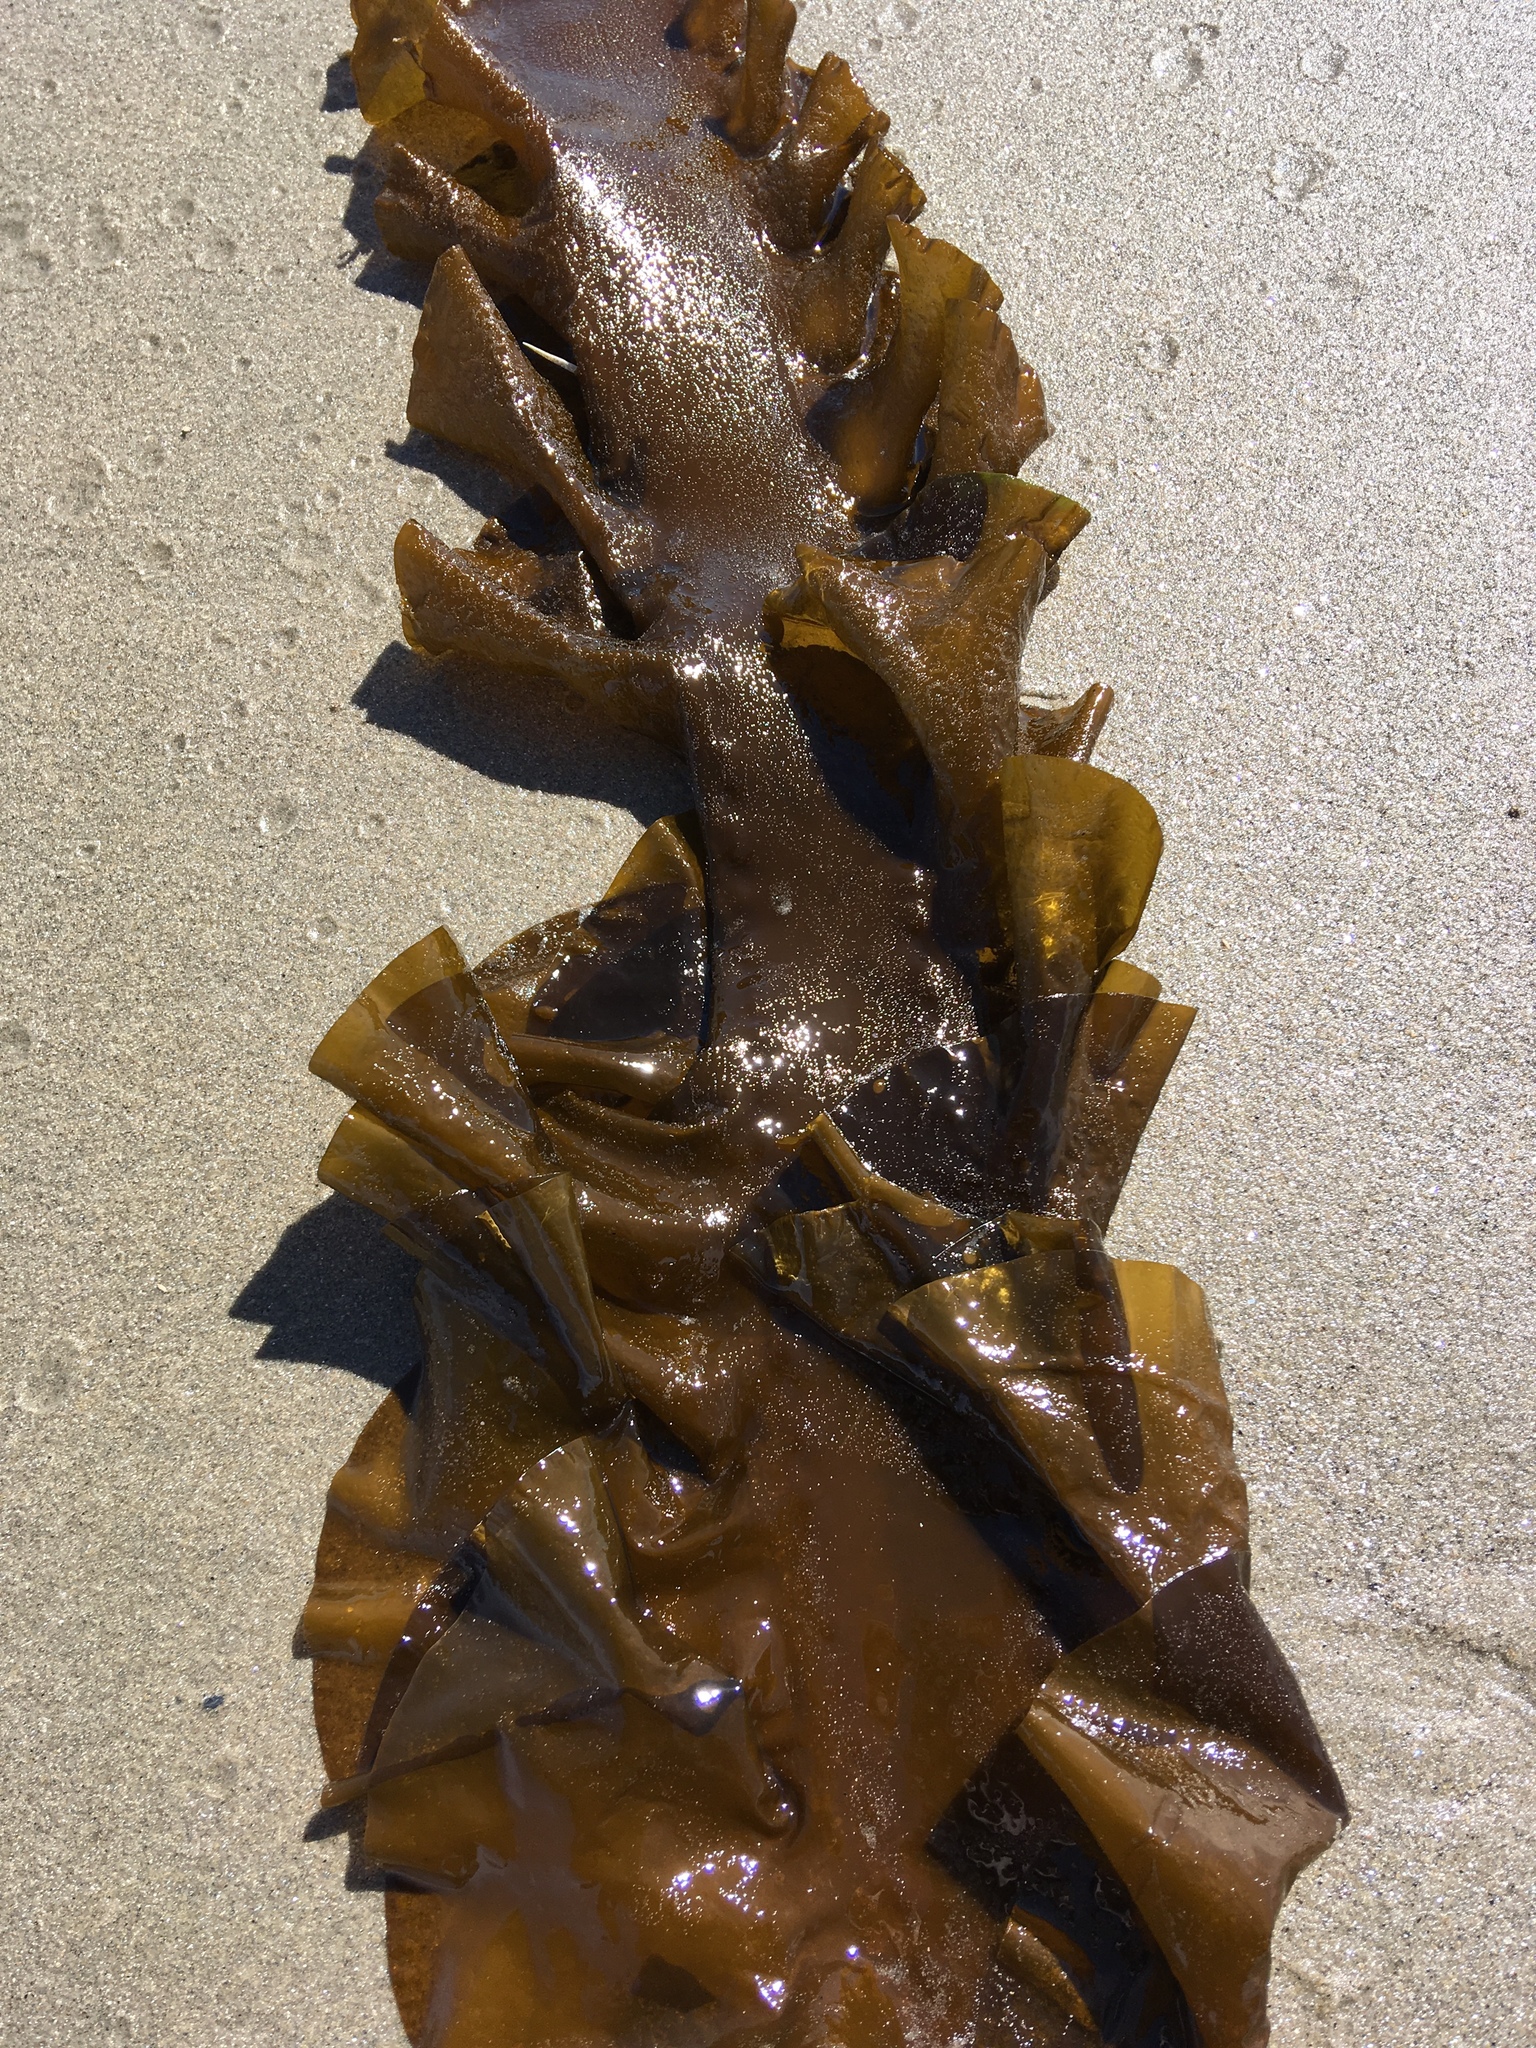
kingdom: Chromista
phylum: Ochrophyta
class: Phaeophyceae
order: Laminariales
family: Laminariaceae
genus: Saccharina
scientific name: Saccharina latissima
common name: Poor man's weather glass
